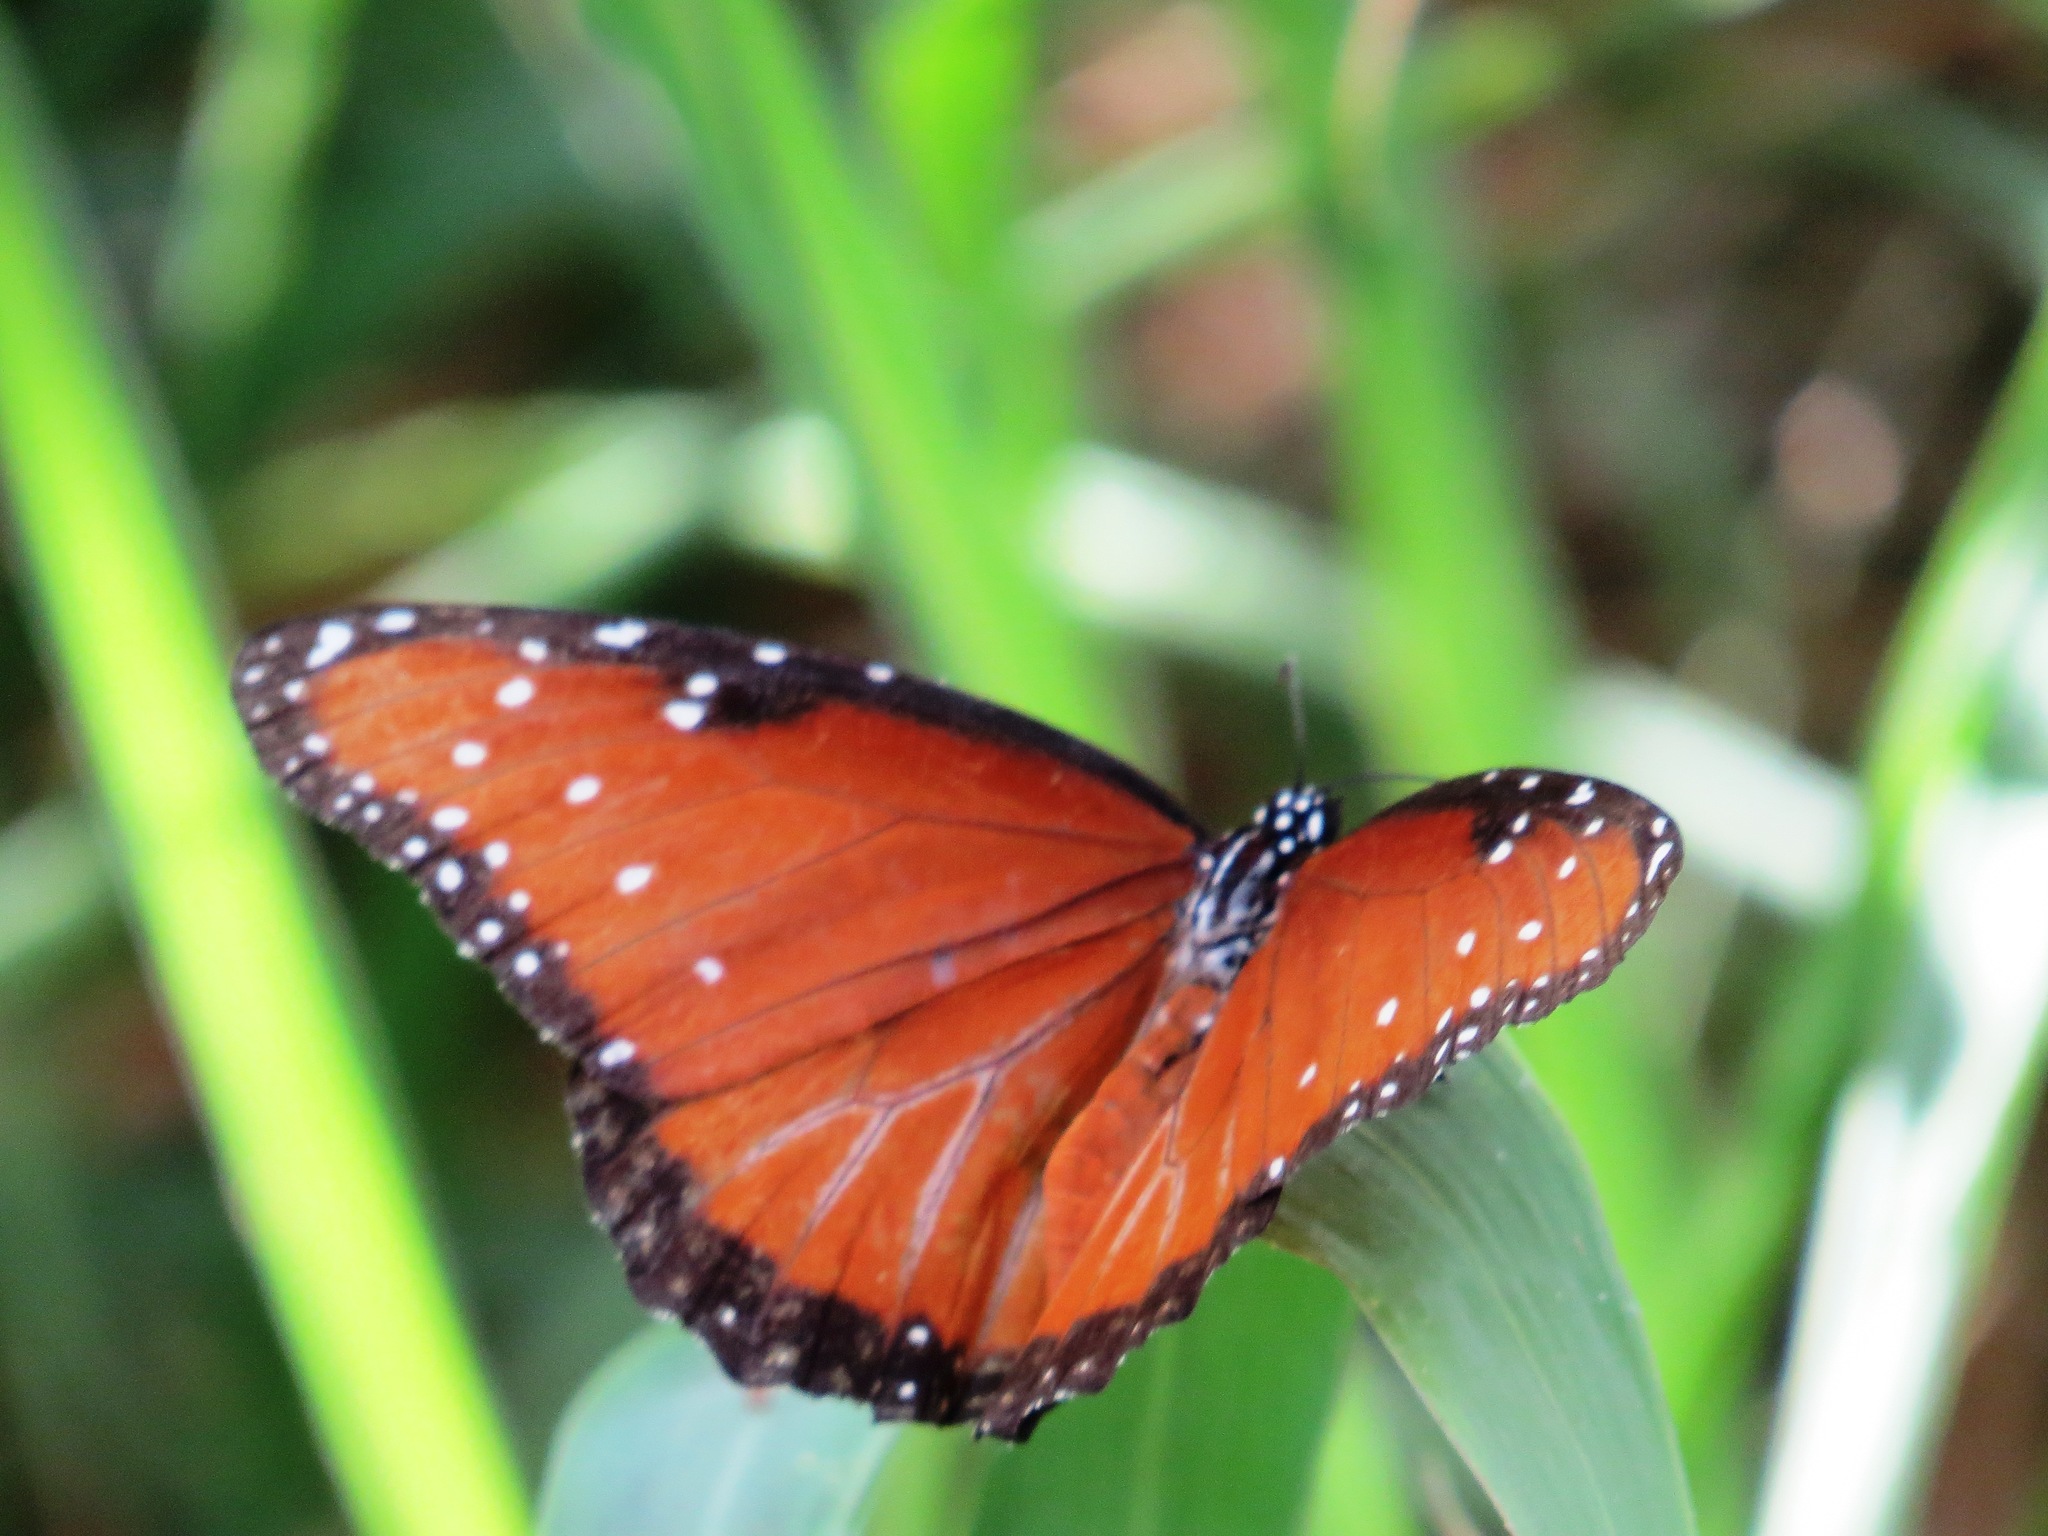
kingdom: Animalia
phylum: Arthropoda
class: Insecta
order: Lepidoptera
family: Nymphalidae
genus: Danaus
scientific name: Danaus gilippus
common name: Queen
